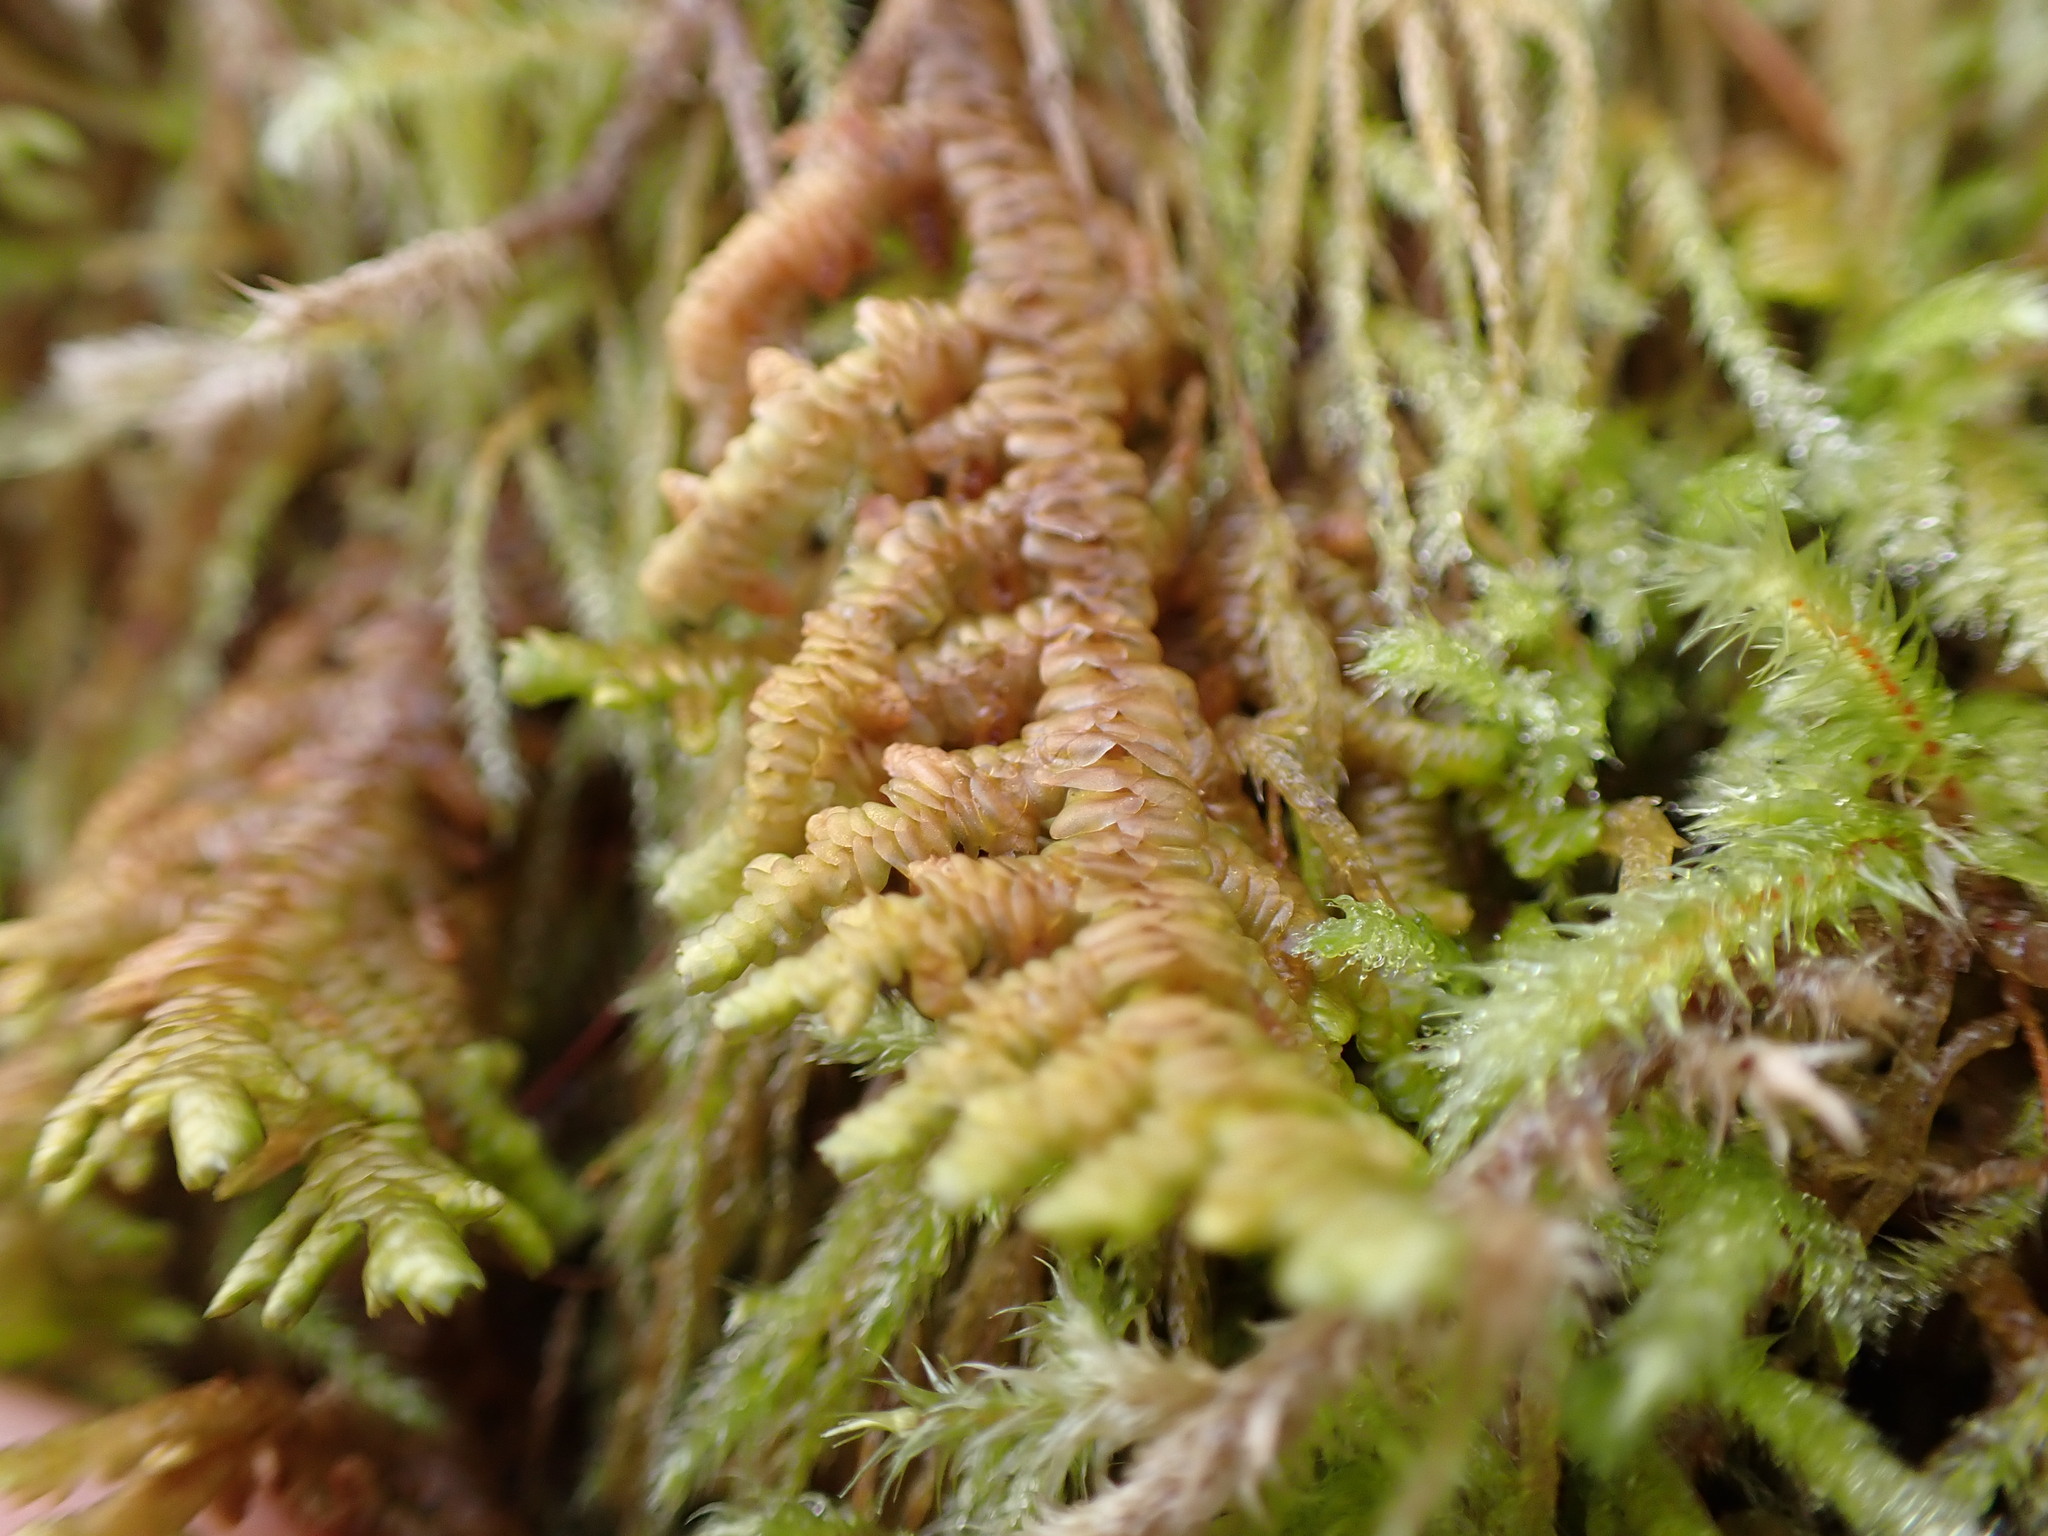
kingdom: Plantae
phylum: Marchantiophyta
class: Jungermanniopsida
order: Porellales
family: Porellaceae
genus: Porella
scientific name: Porella navicularis
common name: Tree ruffle liverwort
